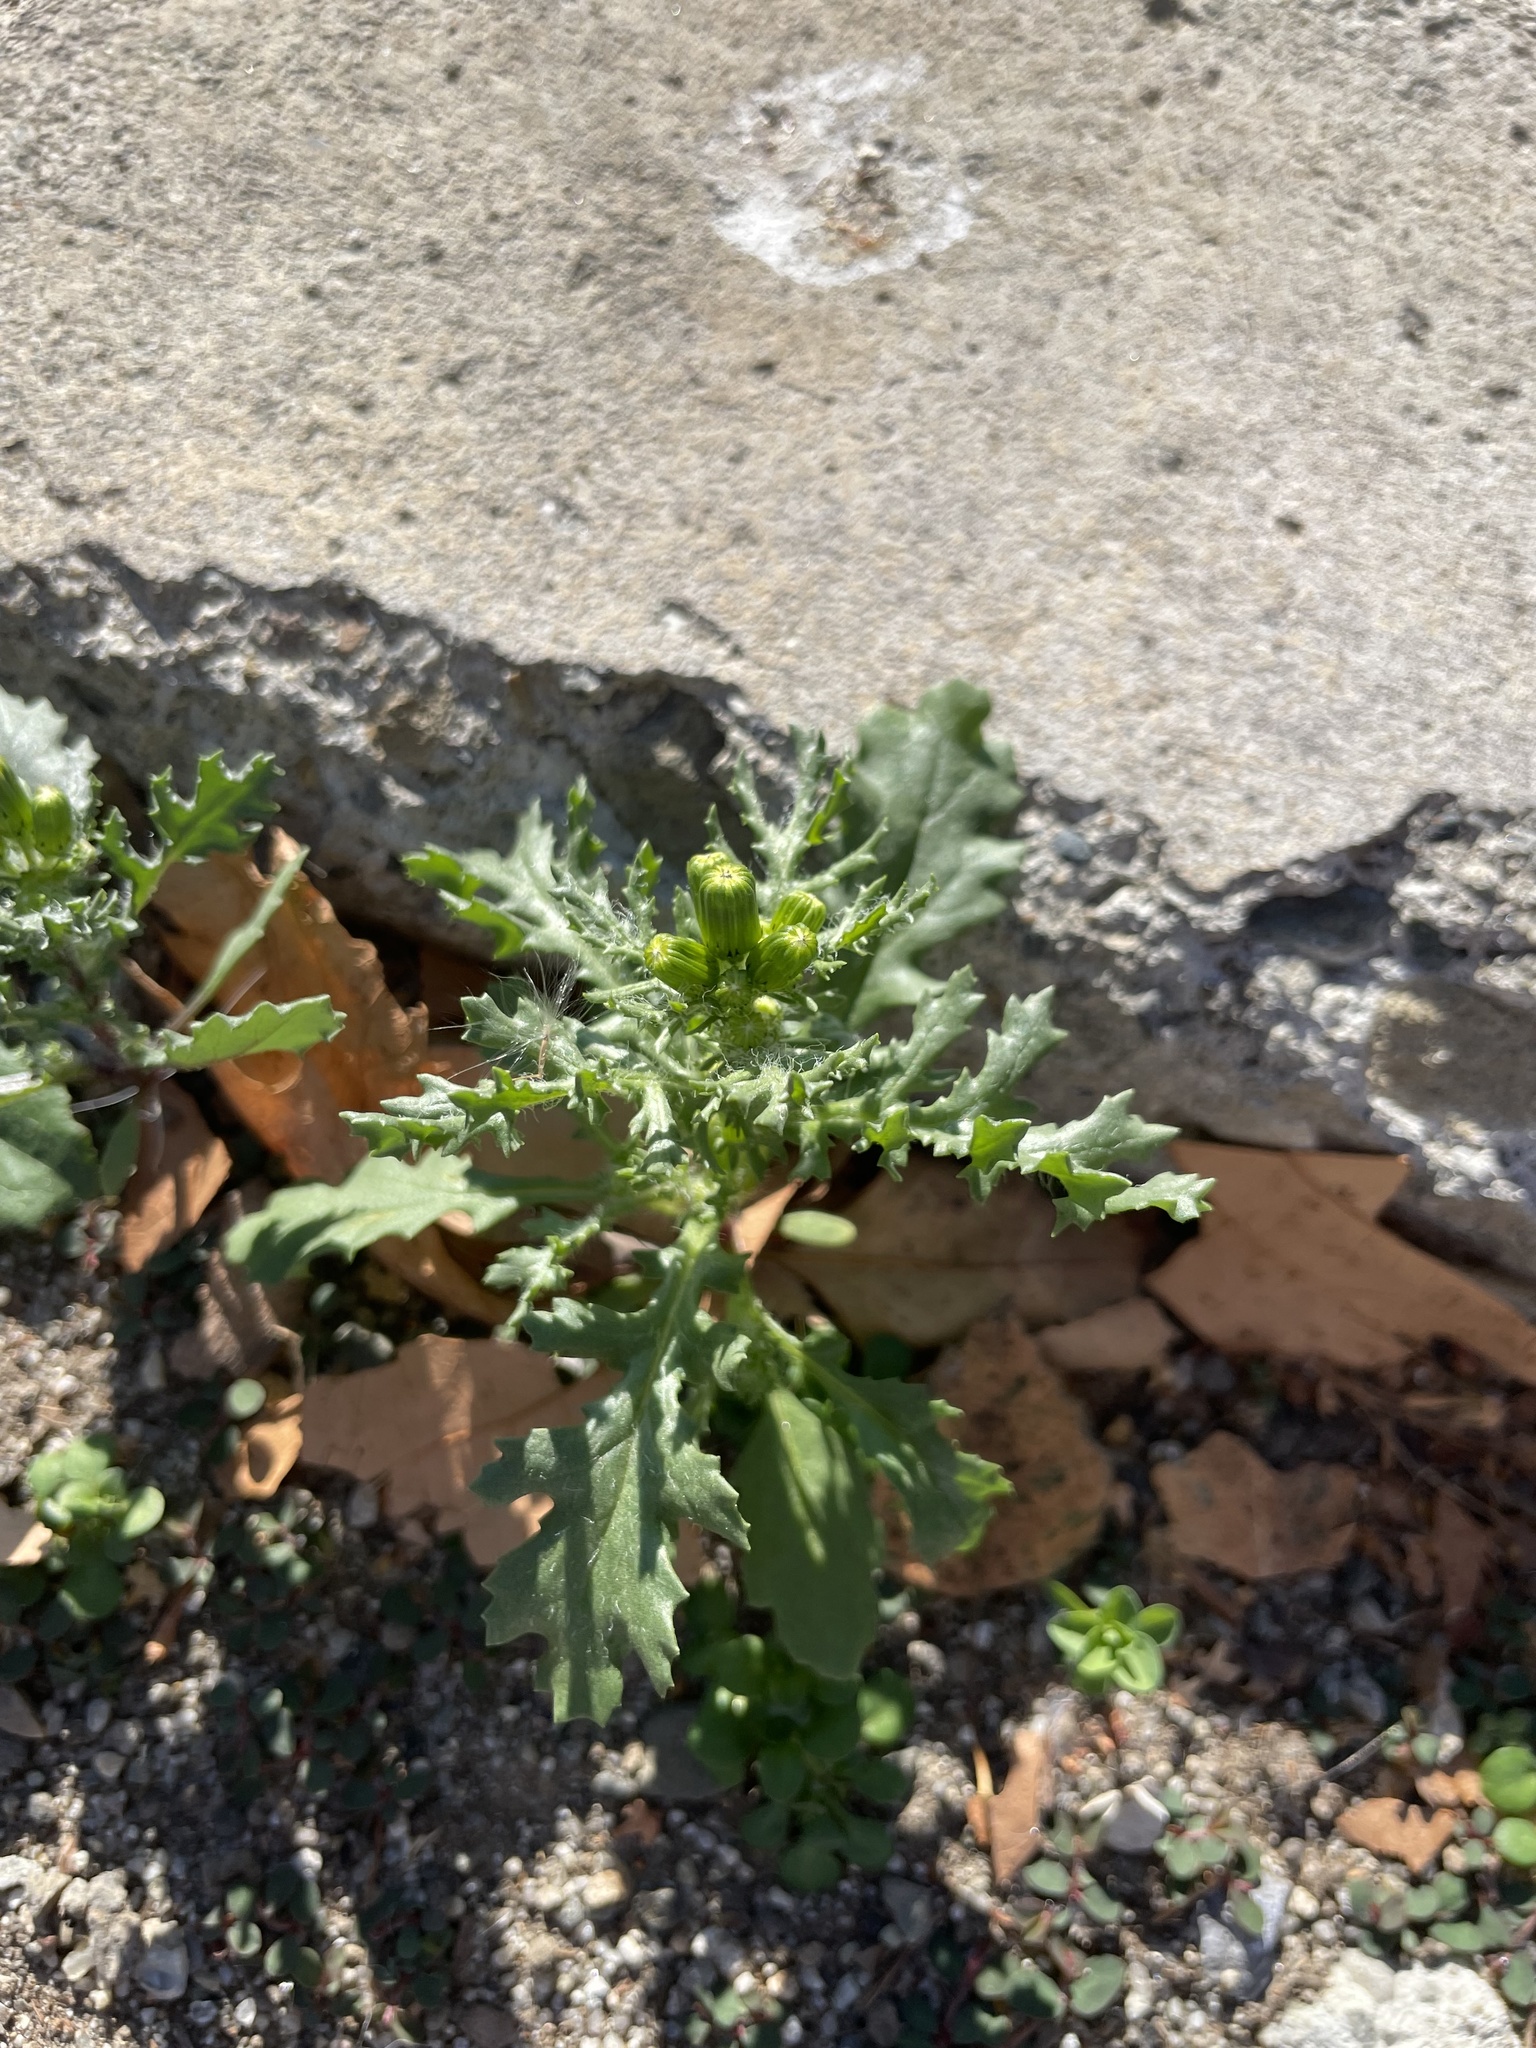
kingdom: Plantae
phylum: Tracheophyta
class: Magnoliopsida
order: Asterales
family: Asteraceae
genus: Senecio
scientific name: Senecio vulgaris
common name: Old-man-in-the-spring
